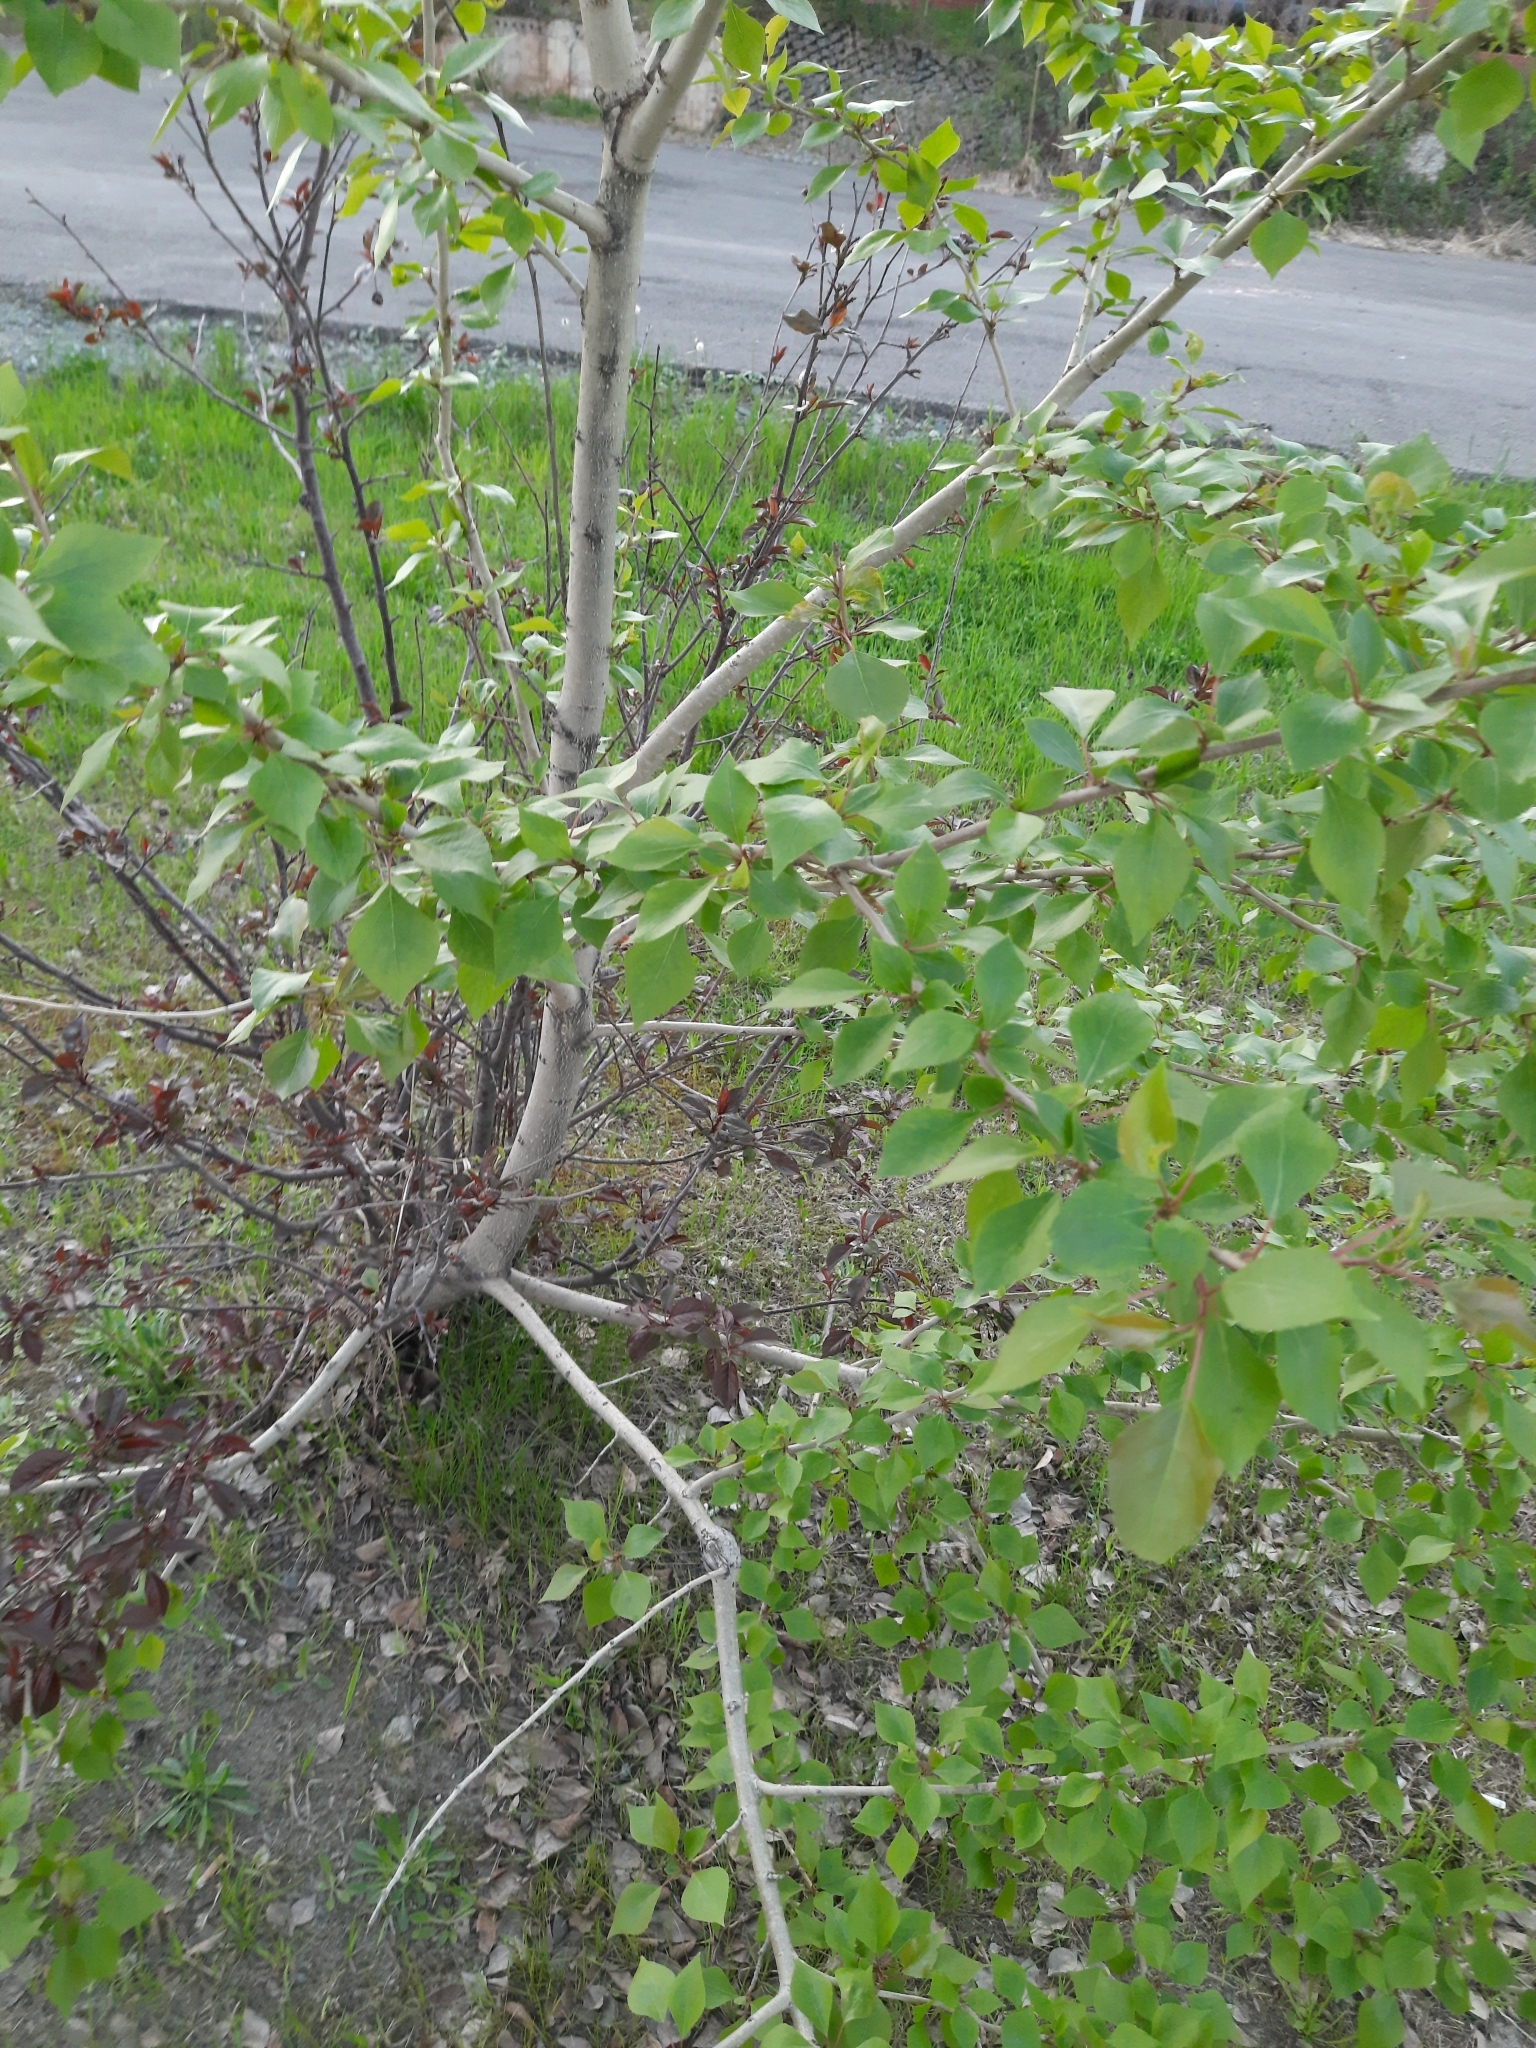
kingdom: Plantae
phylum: Tracheophyta
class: Magnoliopsida
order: Malpighiales
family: Salicaceae
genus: Populus
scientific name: Populus sibirica
